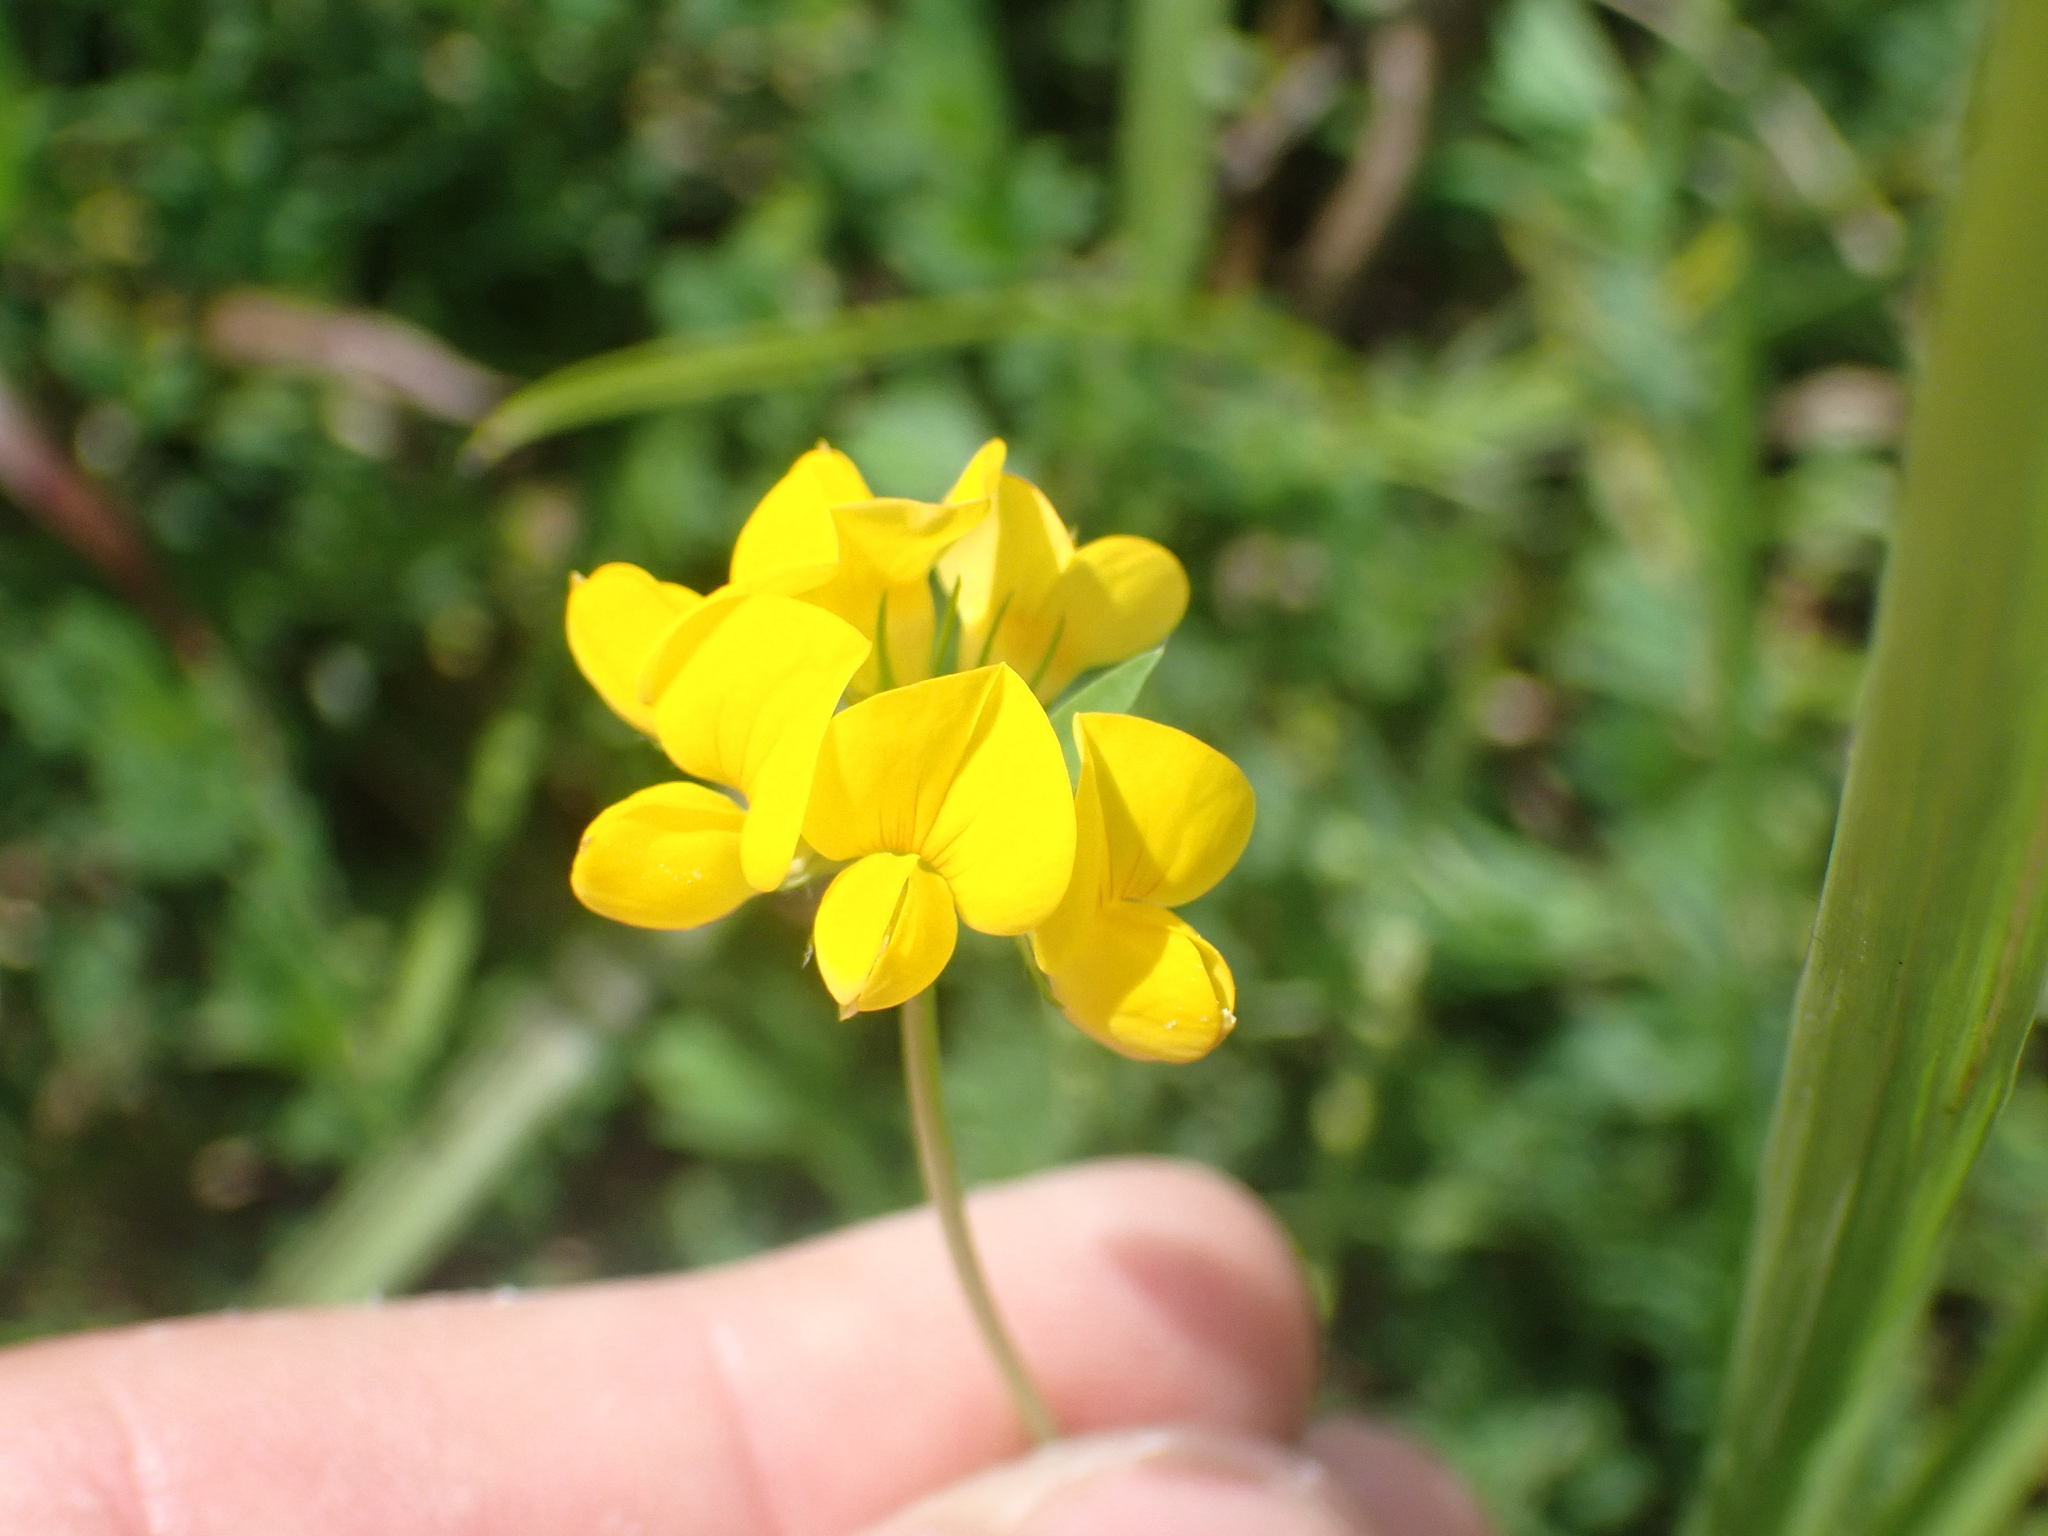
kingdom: Plantae
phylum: Tracheophyta
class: Magnoliopsida
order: Fabales
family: Fabaceae
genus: Lotus
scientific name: Lotus corniculatus
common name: Common bird's-foot-trefoil
